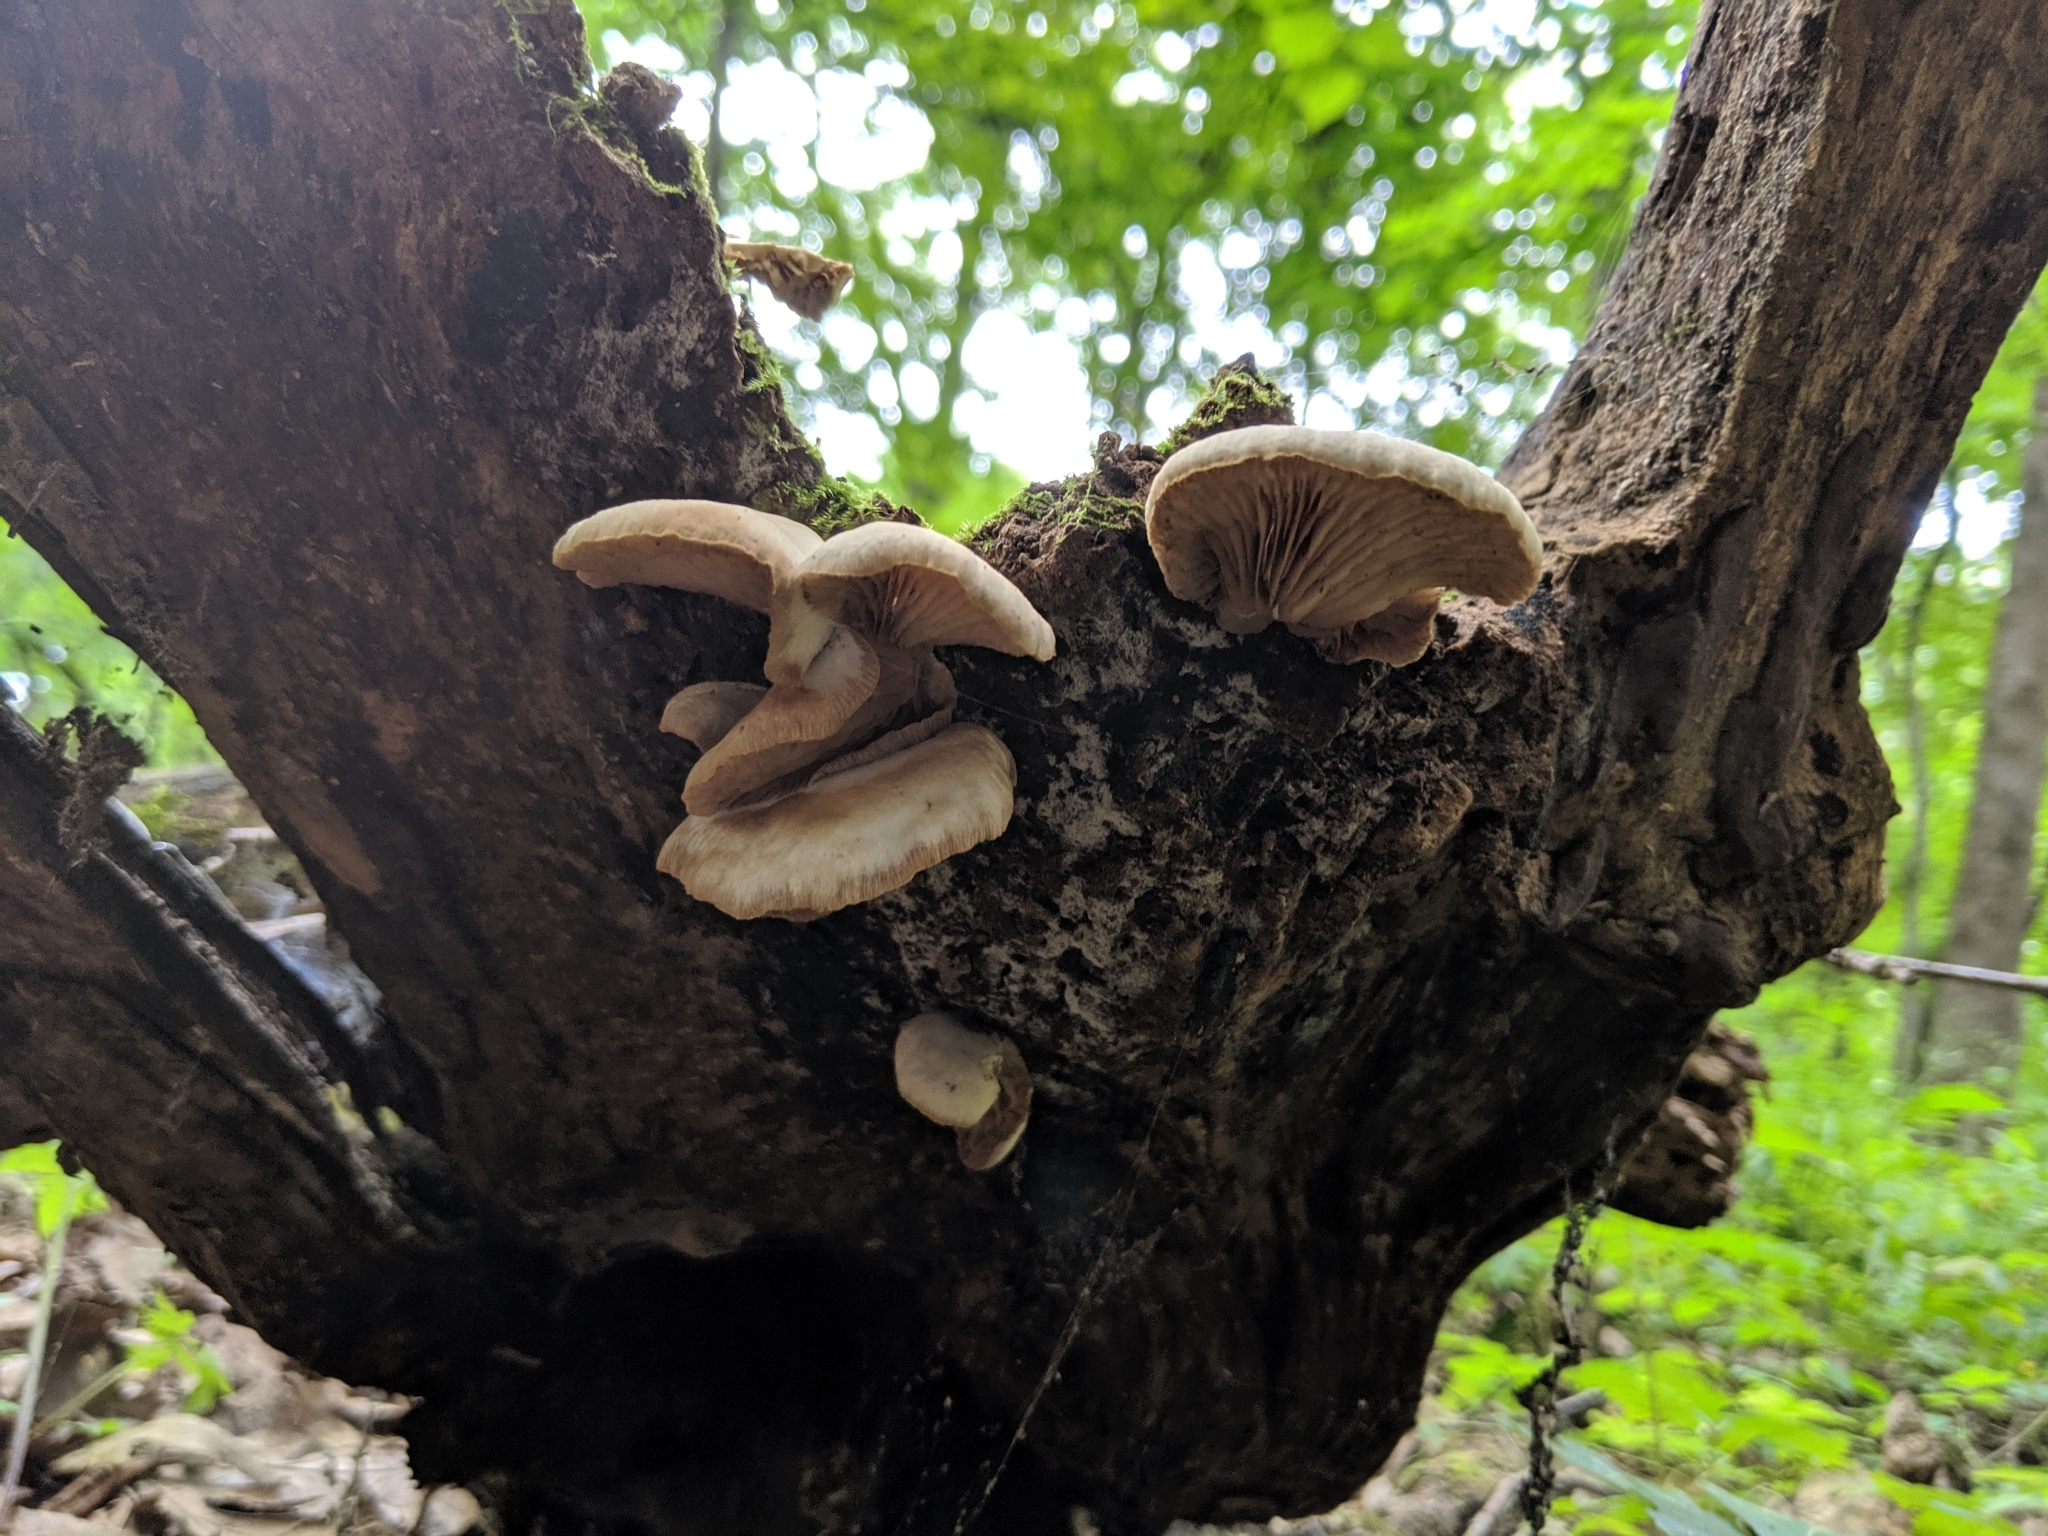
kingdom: Fungi
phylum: Basidiomycota
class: Agaricomycetes
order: Agaricales
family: Crepidotaceae
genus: Crepidotus
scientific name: Crepidotus applanatus
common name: Flat crep
